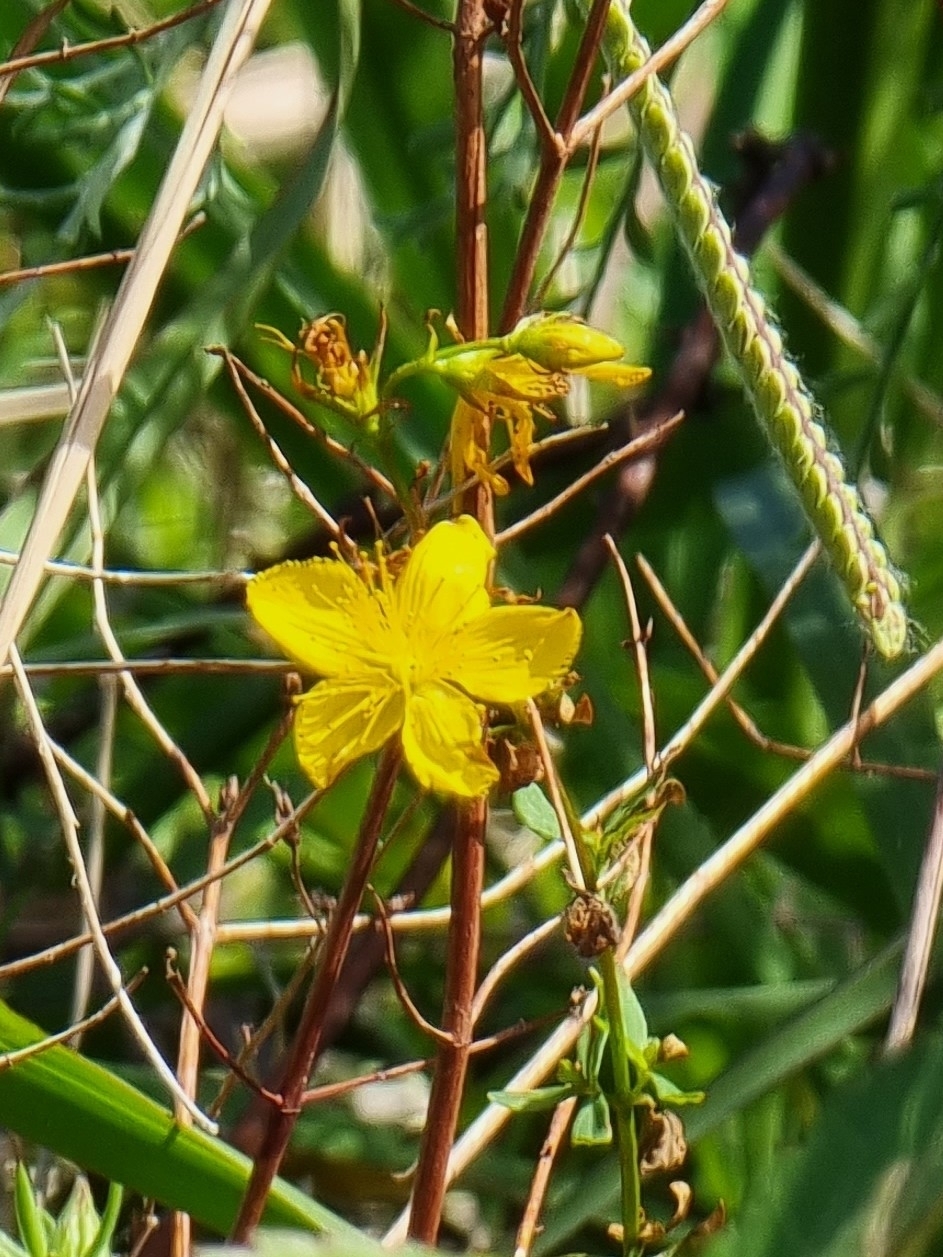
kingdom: Plantae
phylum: Tracheophyta
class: Magnoliopsida
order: Malpighiales
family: Hypericaceae
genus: Hypericum
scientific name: Hypericum perforatum
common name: Common st. johnswort
